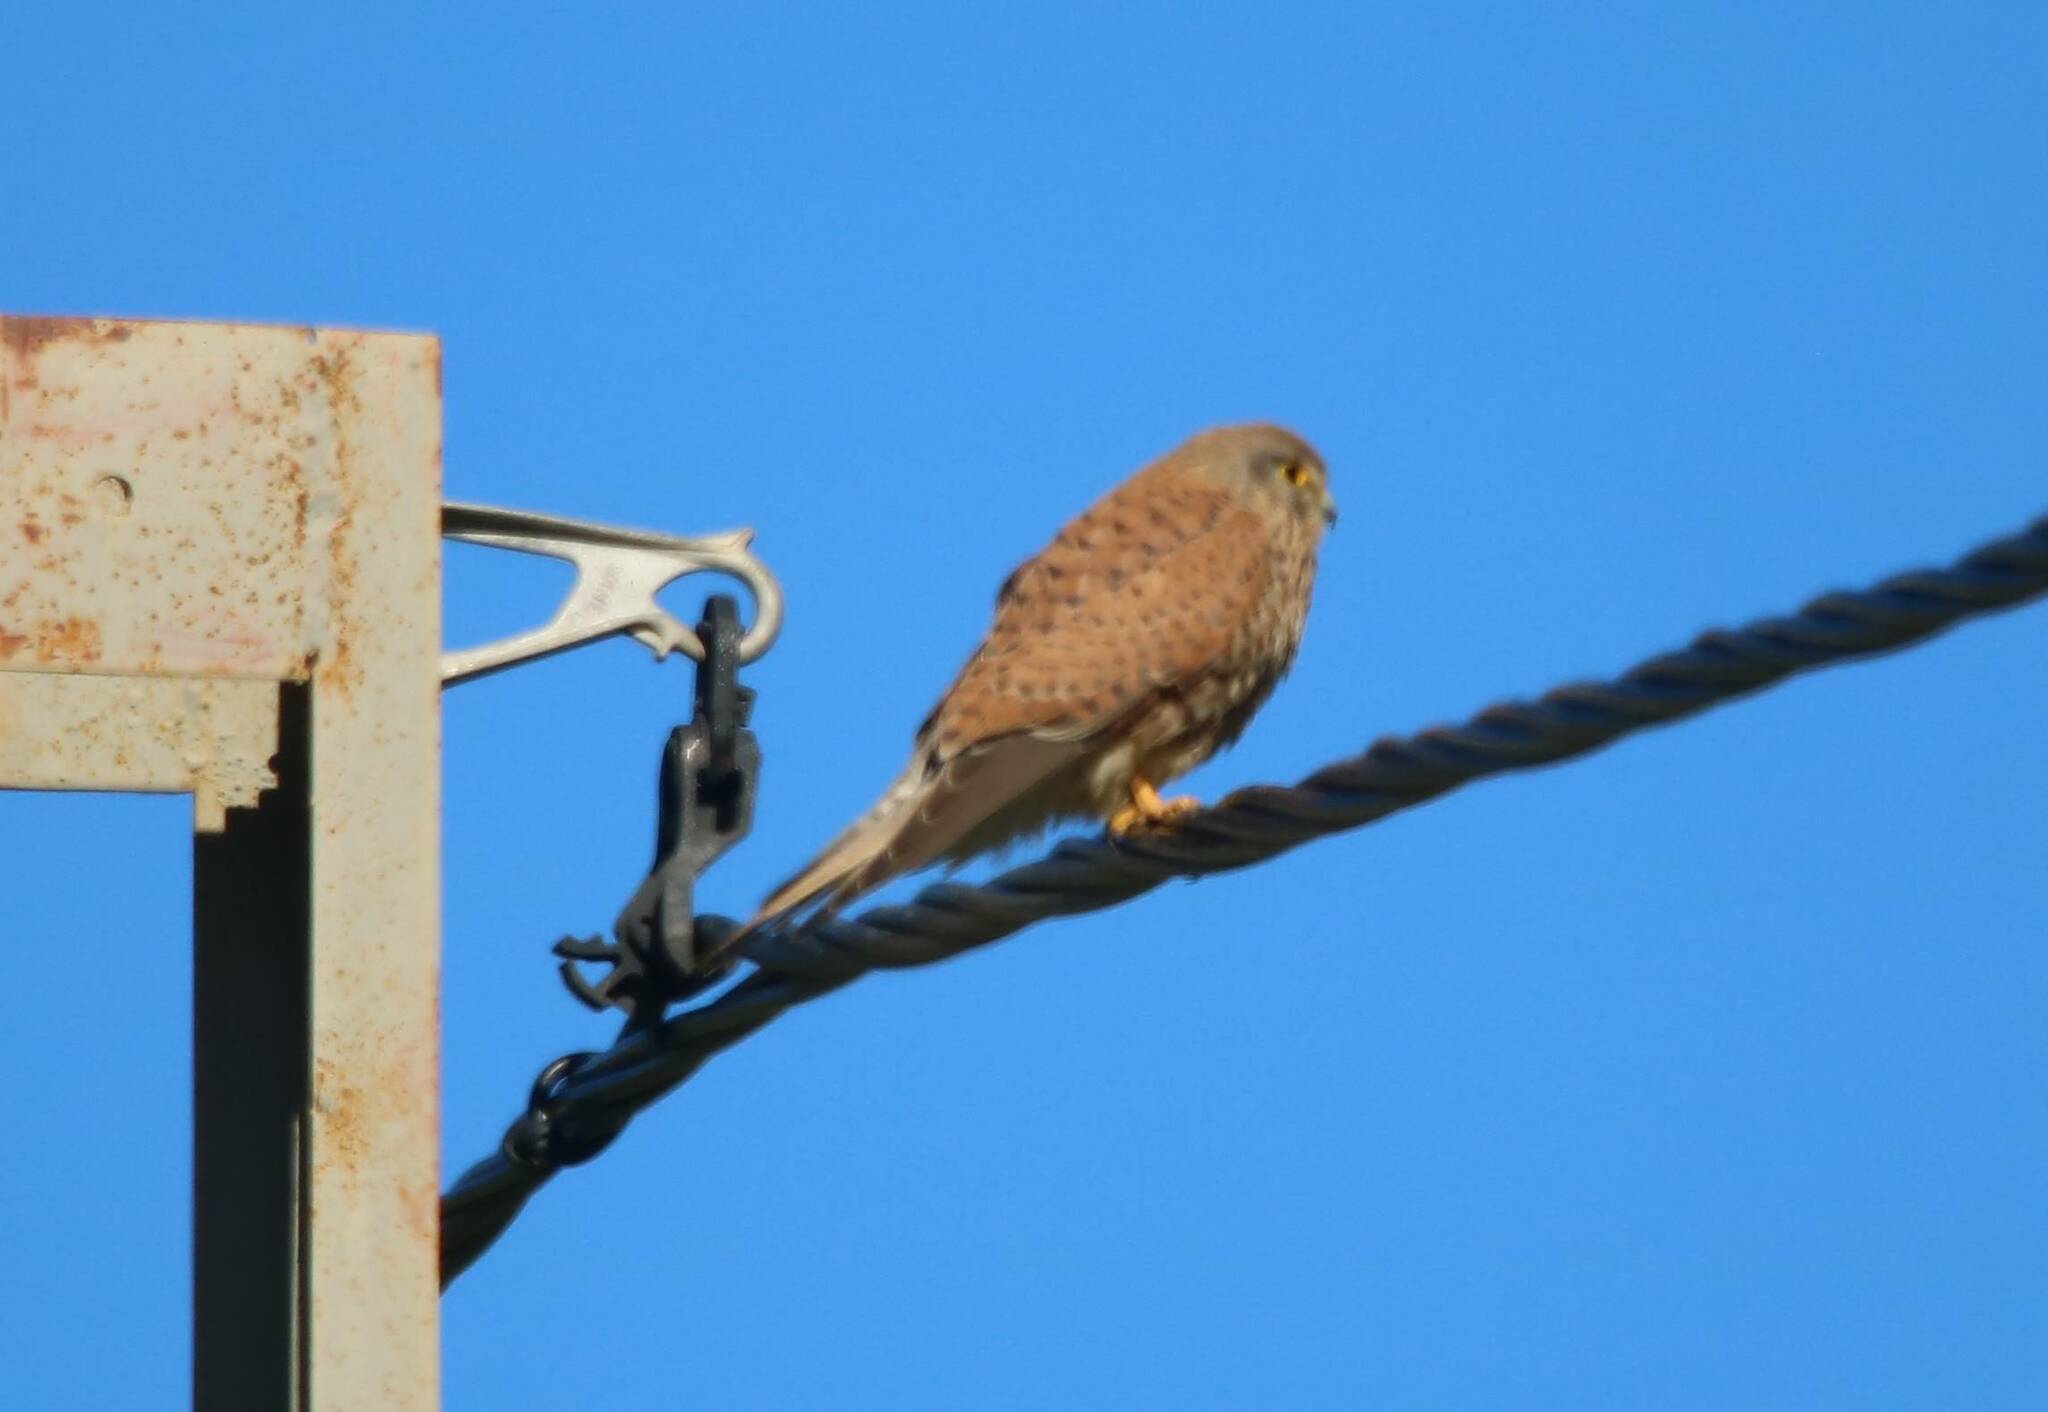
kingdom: Animalia
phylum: Chordata
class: Aves
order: Falconiformes
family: Falconidae
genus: Falco
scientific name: Falco tinnunculus
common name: Common kestrel
